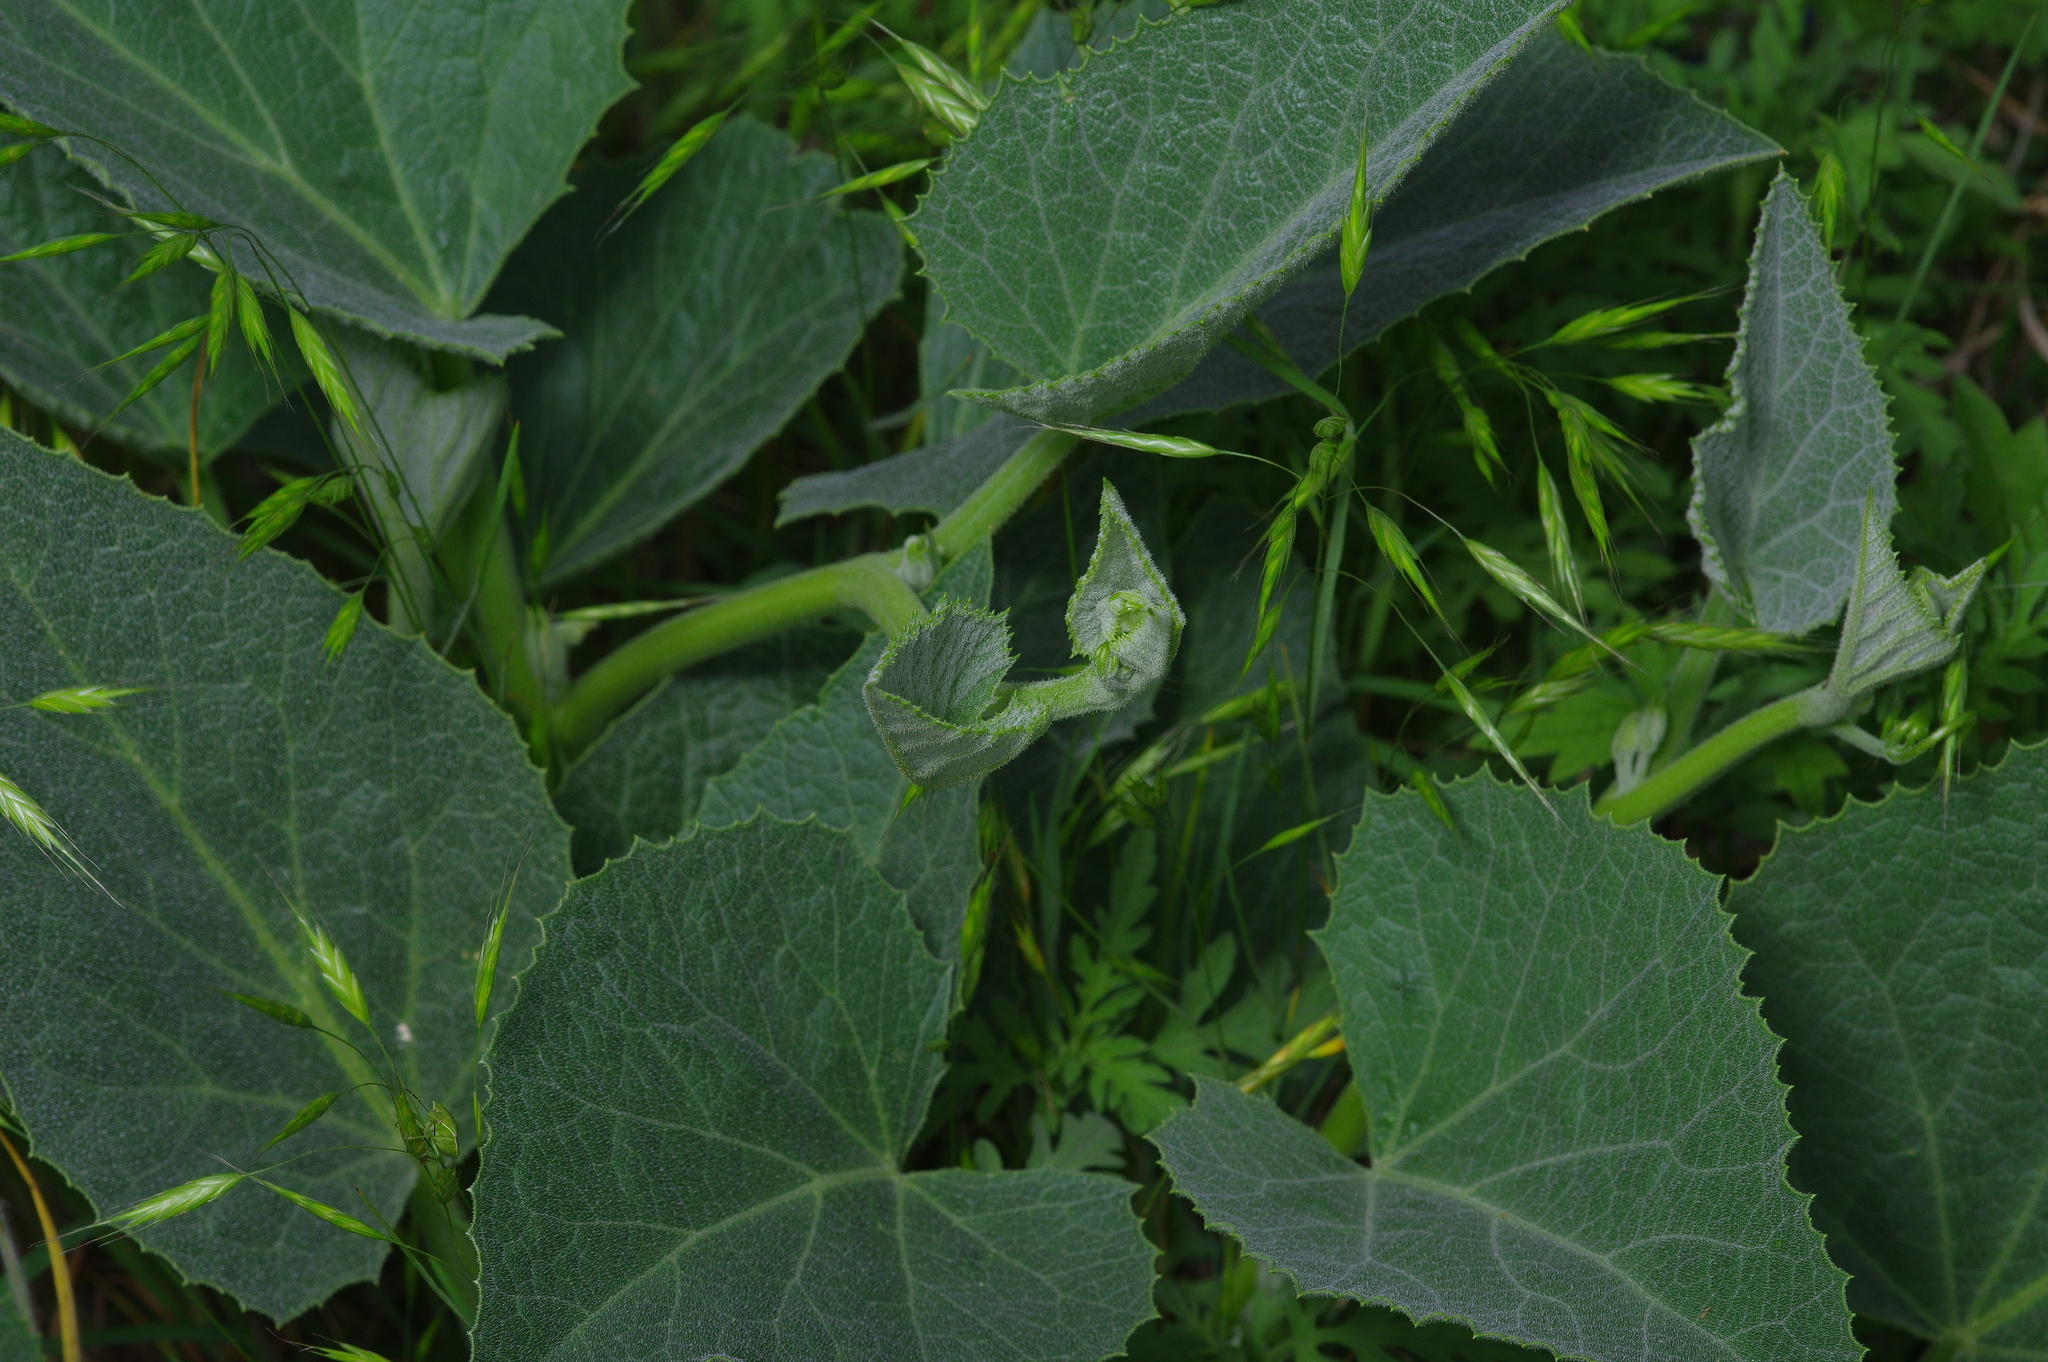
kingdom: Plantae
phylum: Tracheophyta
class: Magnoliopsida
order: Cucurbitales
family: Cucurbitaceae
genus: Cucurbita
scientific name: Cucurbita foetidissima
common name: Buffalo gourd
